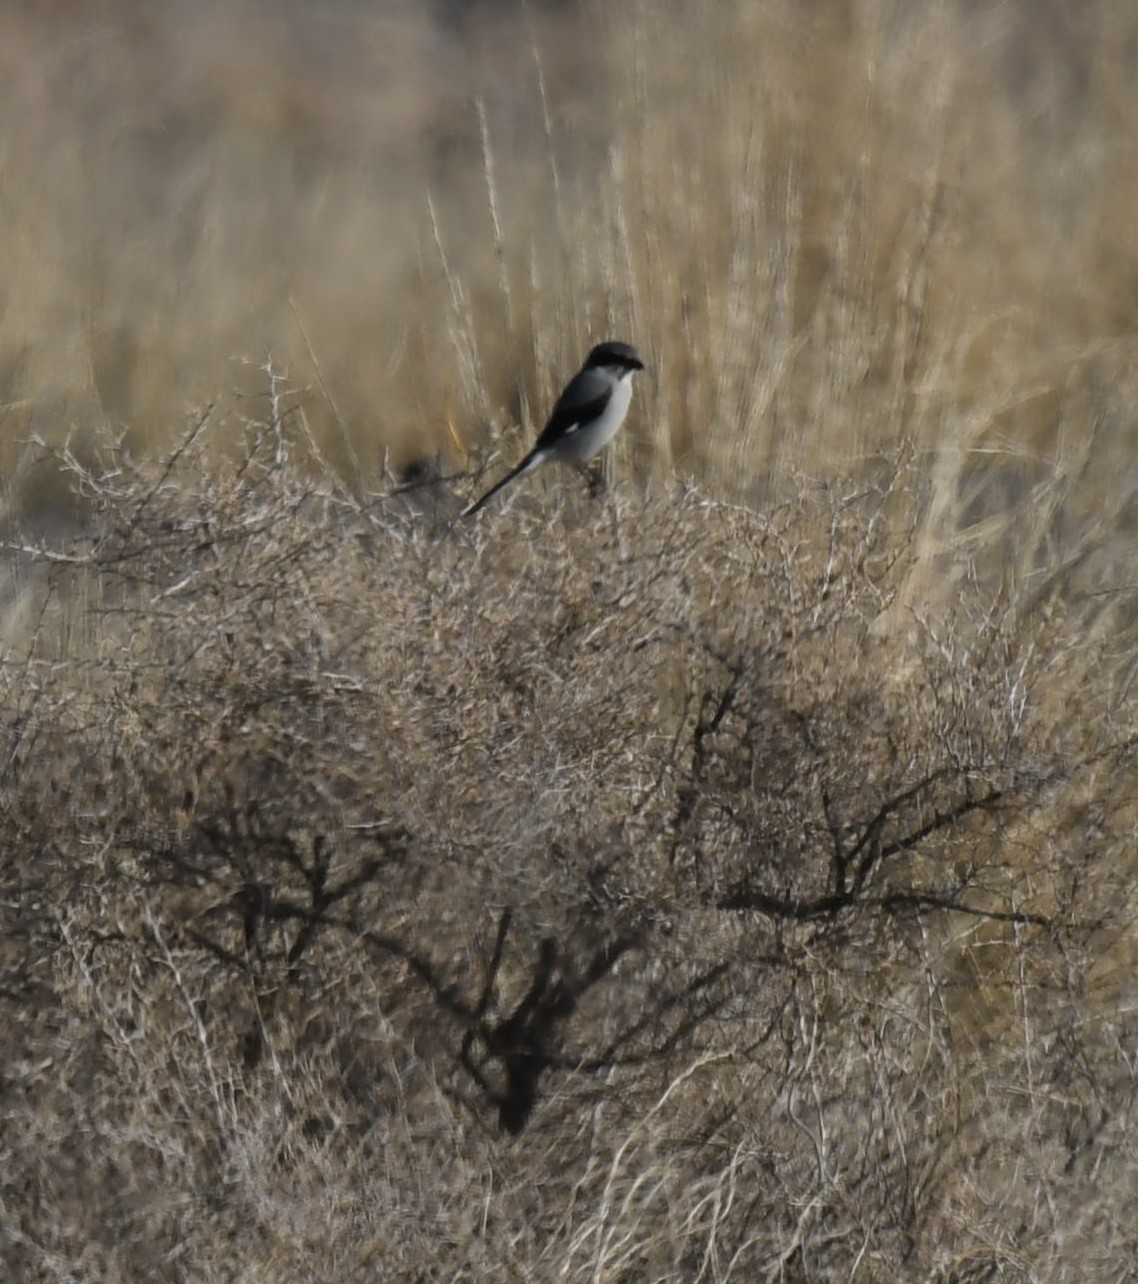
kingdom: Animalia
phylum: Chordata
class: Aves
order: Passeriformes
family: Laniidae
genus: Lanius
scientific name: Lanius ludovicianus
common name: Loggerhead shrike
